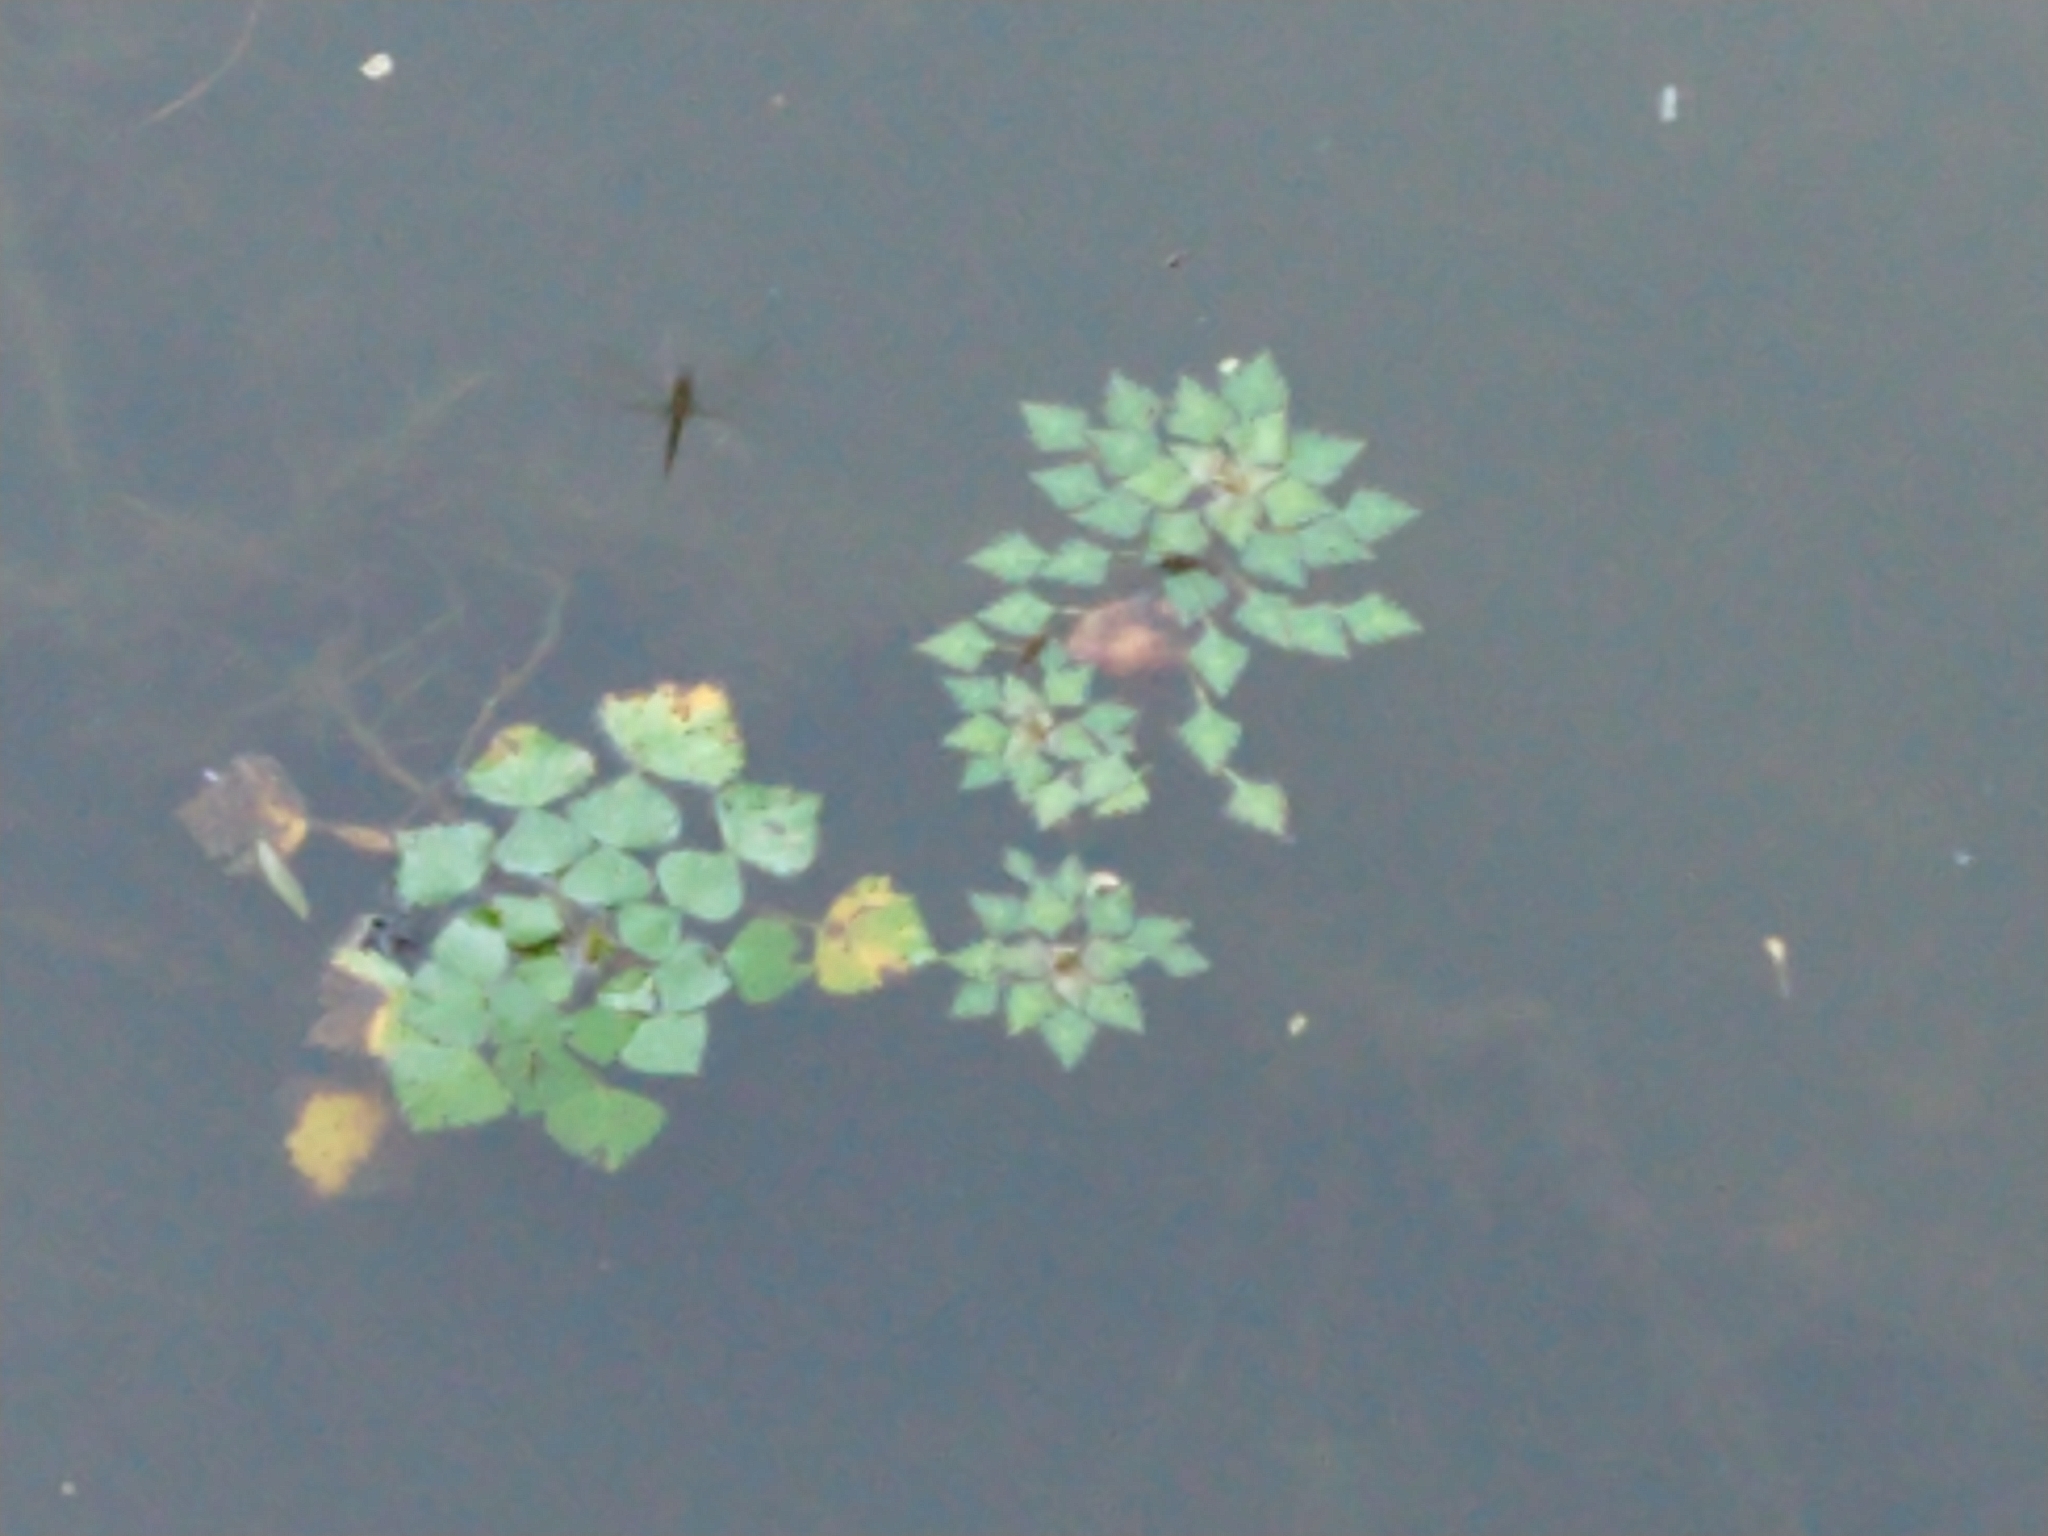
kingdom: Plantae
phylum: Tracheophyta
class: Magnoliopsida
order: Myrtales
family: Lythraceae
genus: Trapa
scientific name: Trapa natans
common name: Water chestnut
